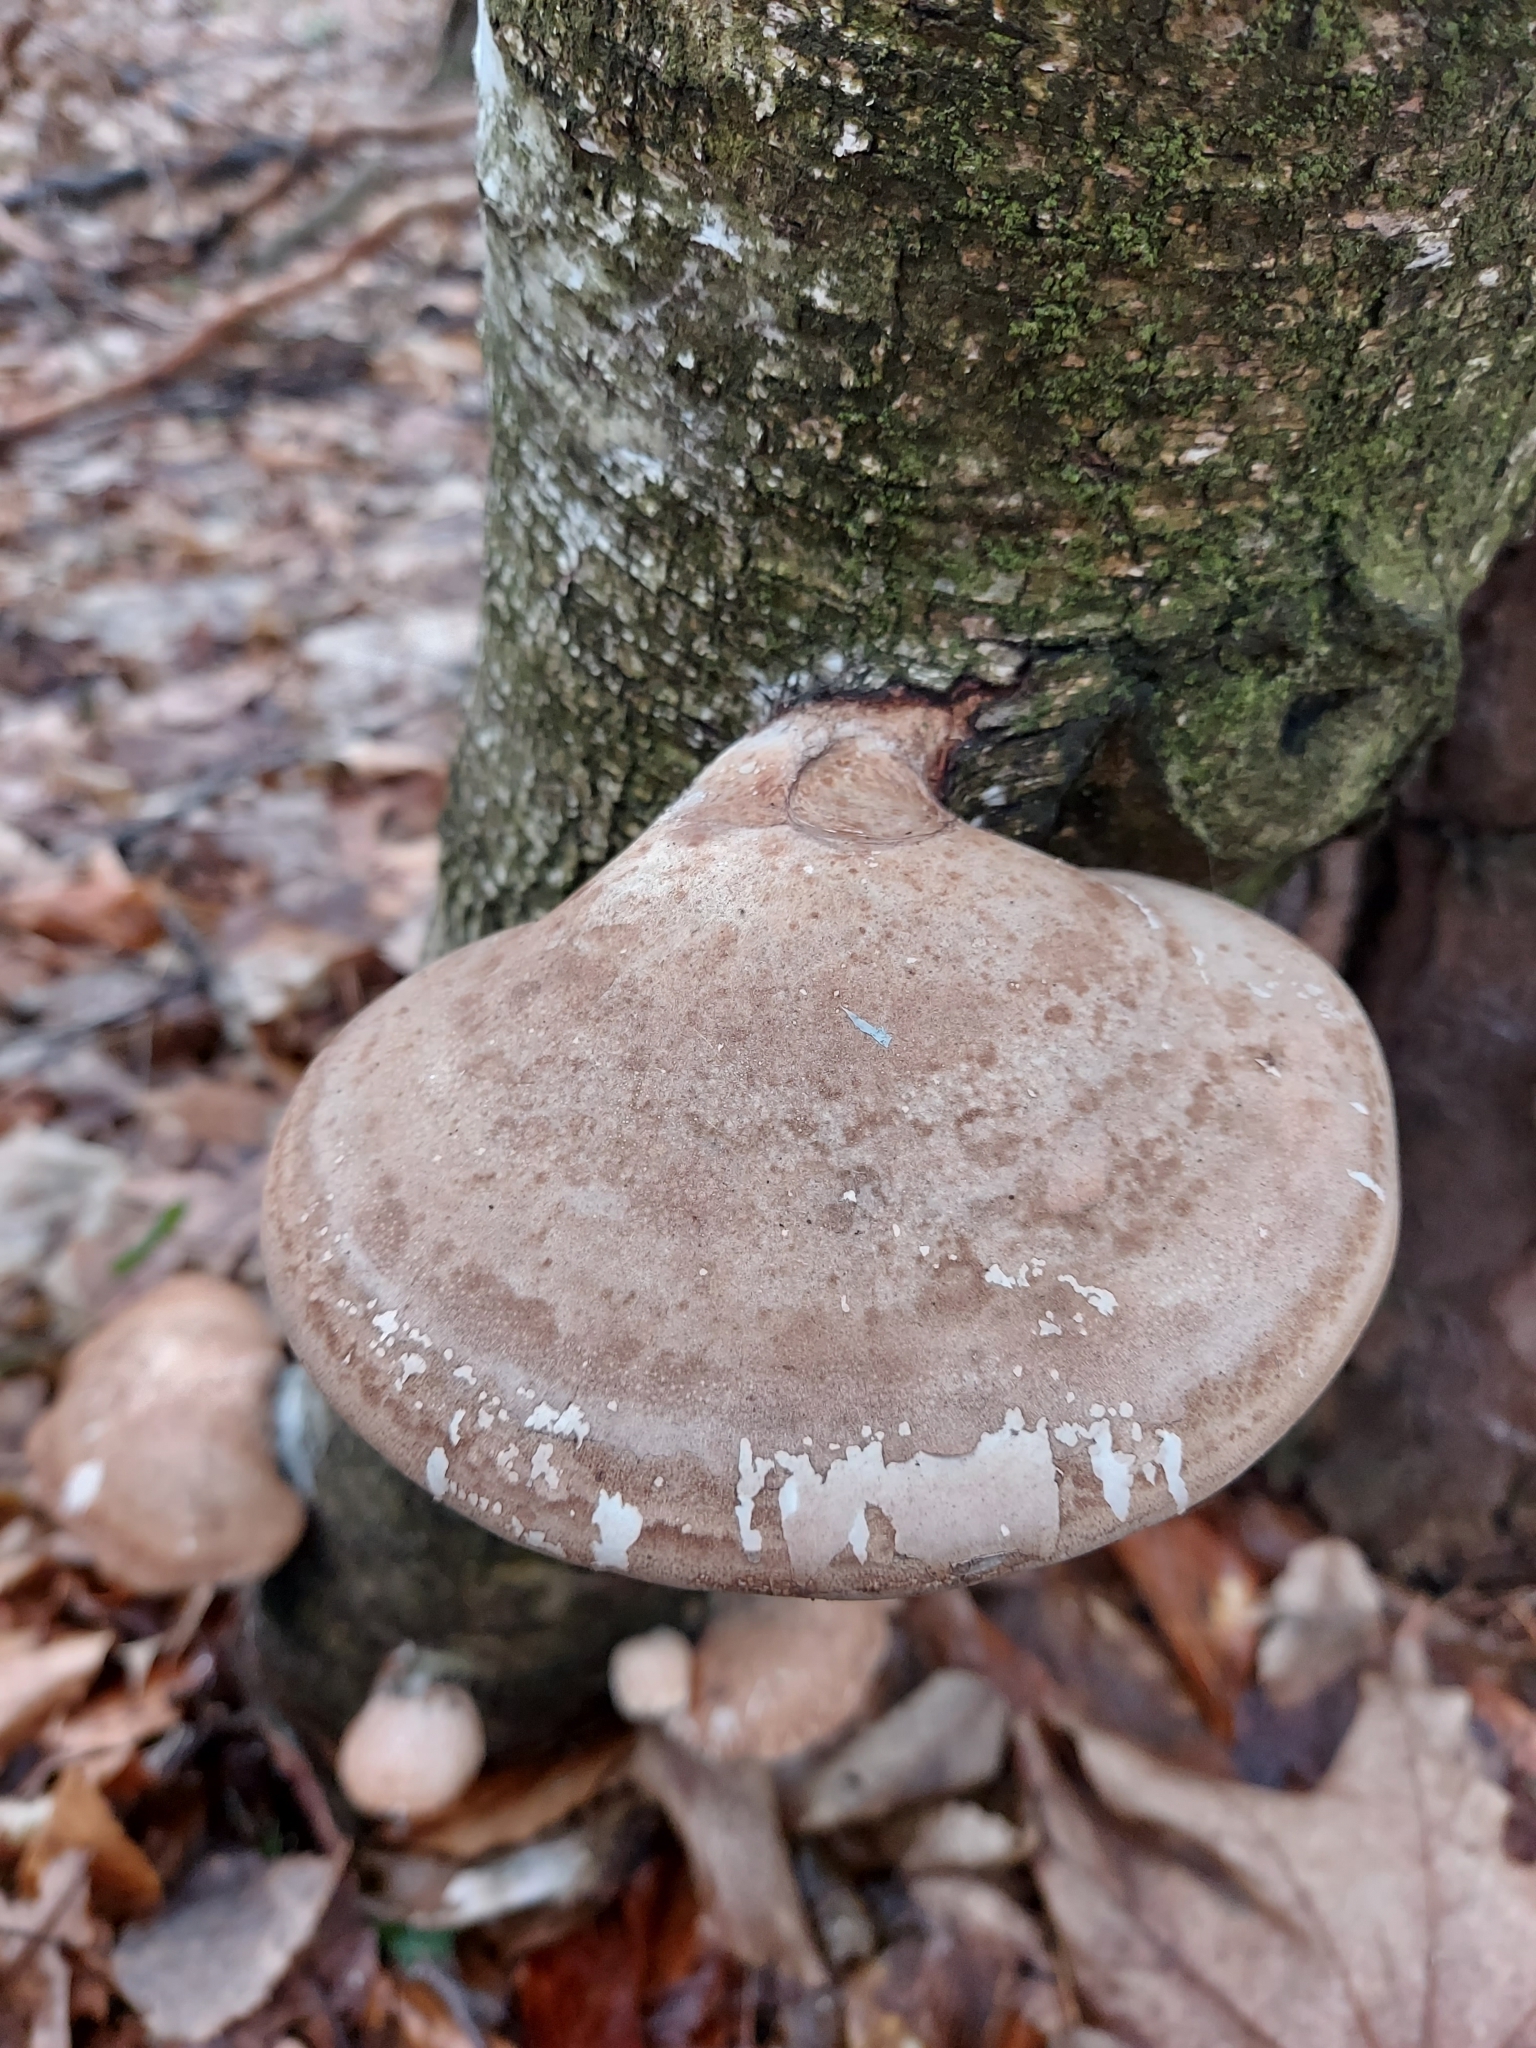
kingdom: Fungi
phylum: Basidiomycota
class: Agaricomycetes
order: Polyporales
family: Fomitopsidaceae
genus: Fomitopsis
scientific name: Fomitopsis betulina
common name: Birch polypore
